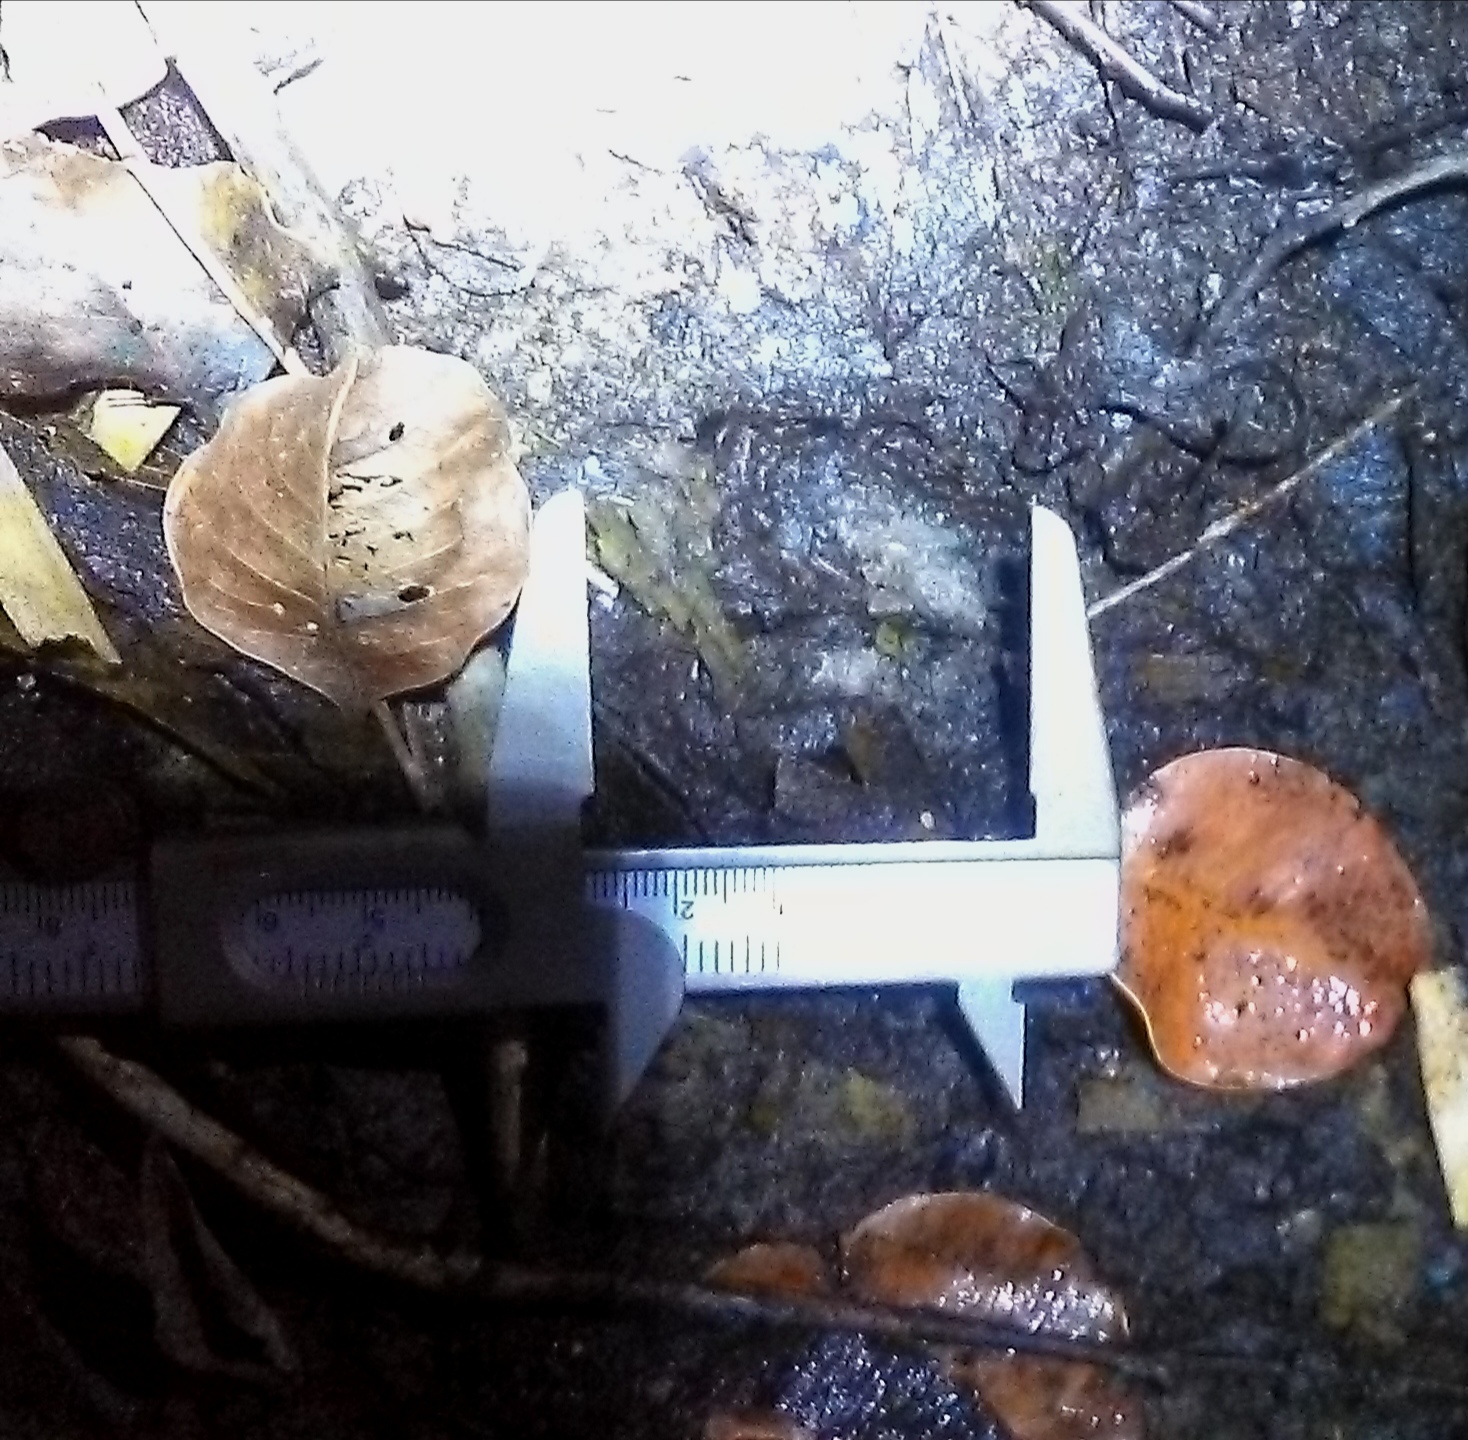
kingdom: Animalia
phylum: Chordata
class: Mammalia
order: Artiodactyla
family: Tayassuidae
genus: Pecari
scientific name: Pecari tajacu
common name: Collared peccary
